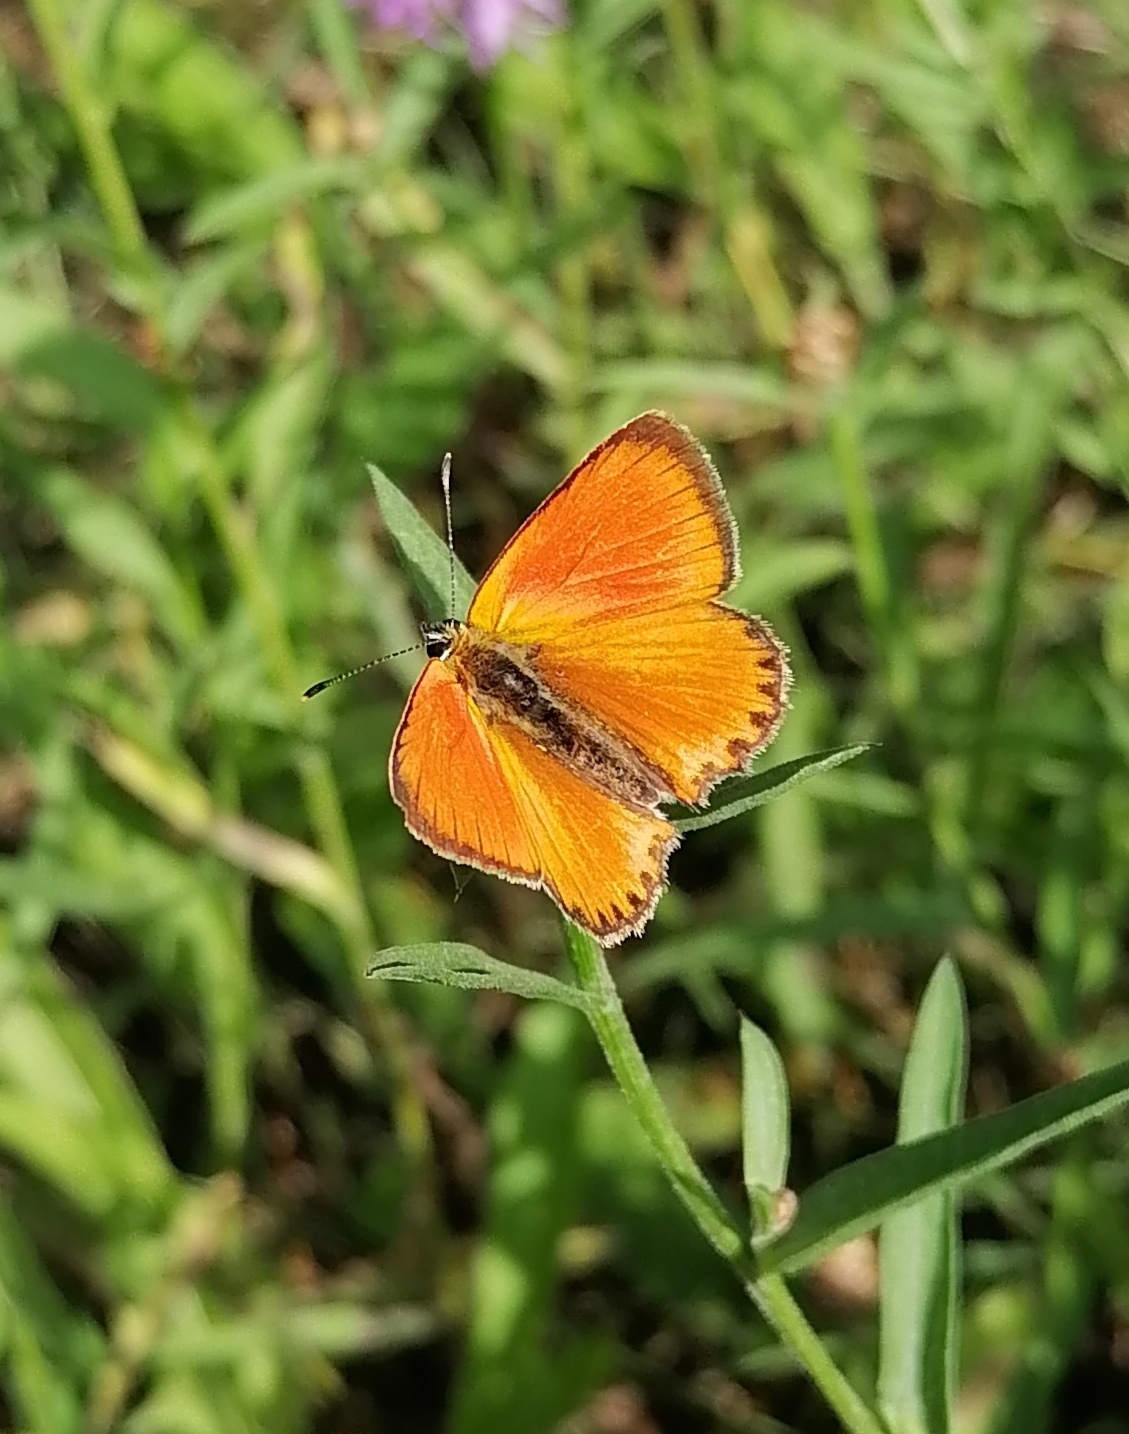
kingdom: Animalia
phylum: Arthropoda
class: Insecta
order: Lepidoptera
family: Lycaenidae
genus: Lycaena
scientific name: Lycaena virgaureae
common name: Scarce copper
